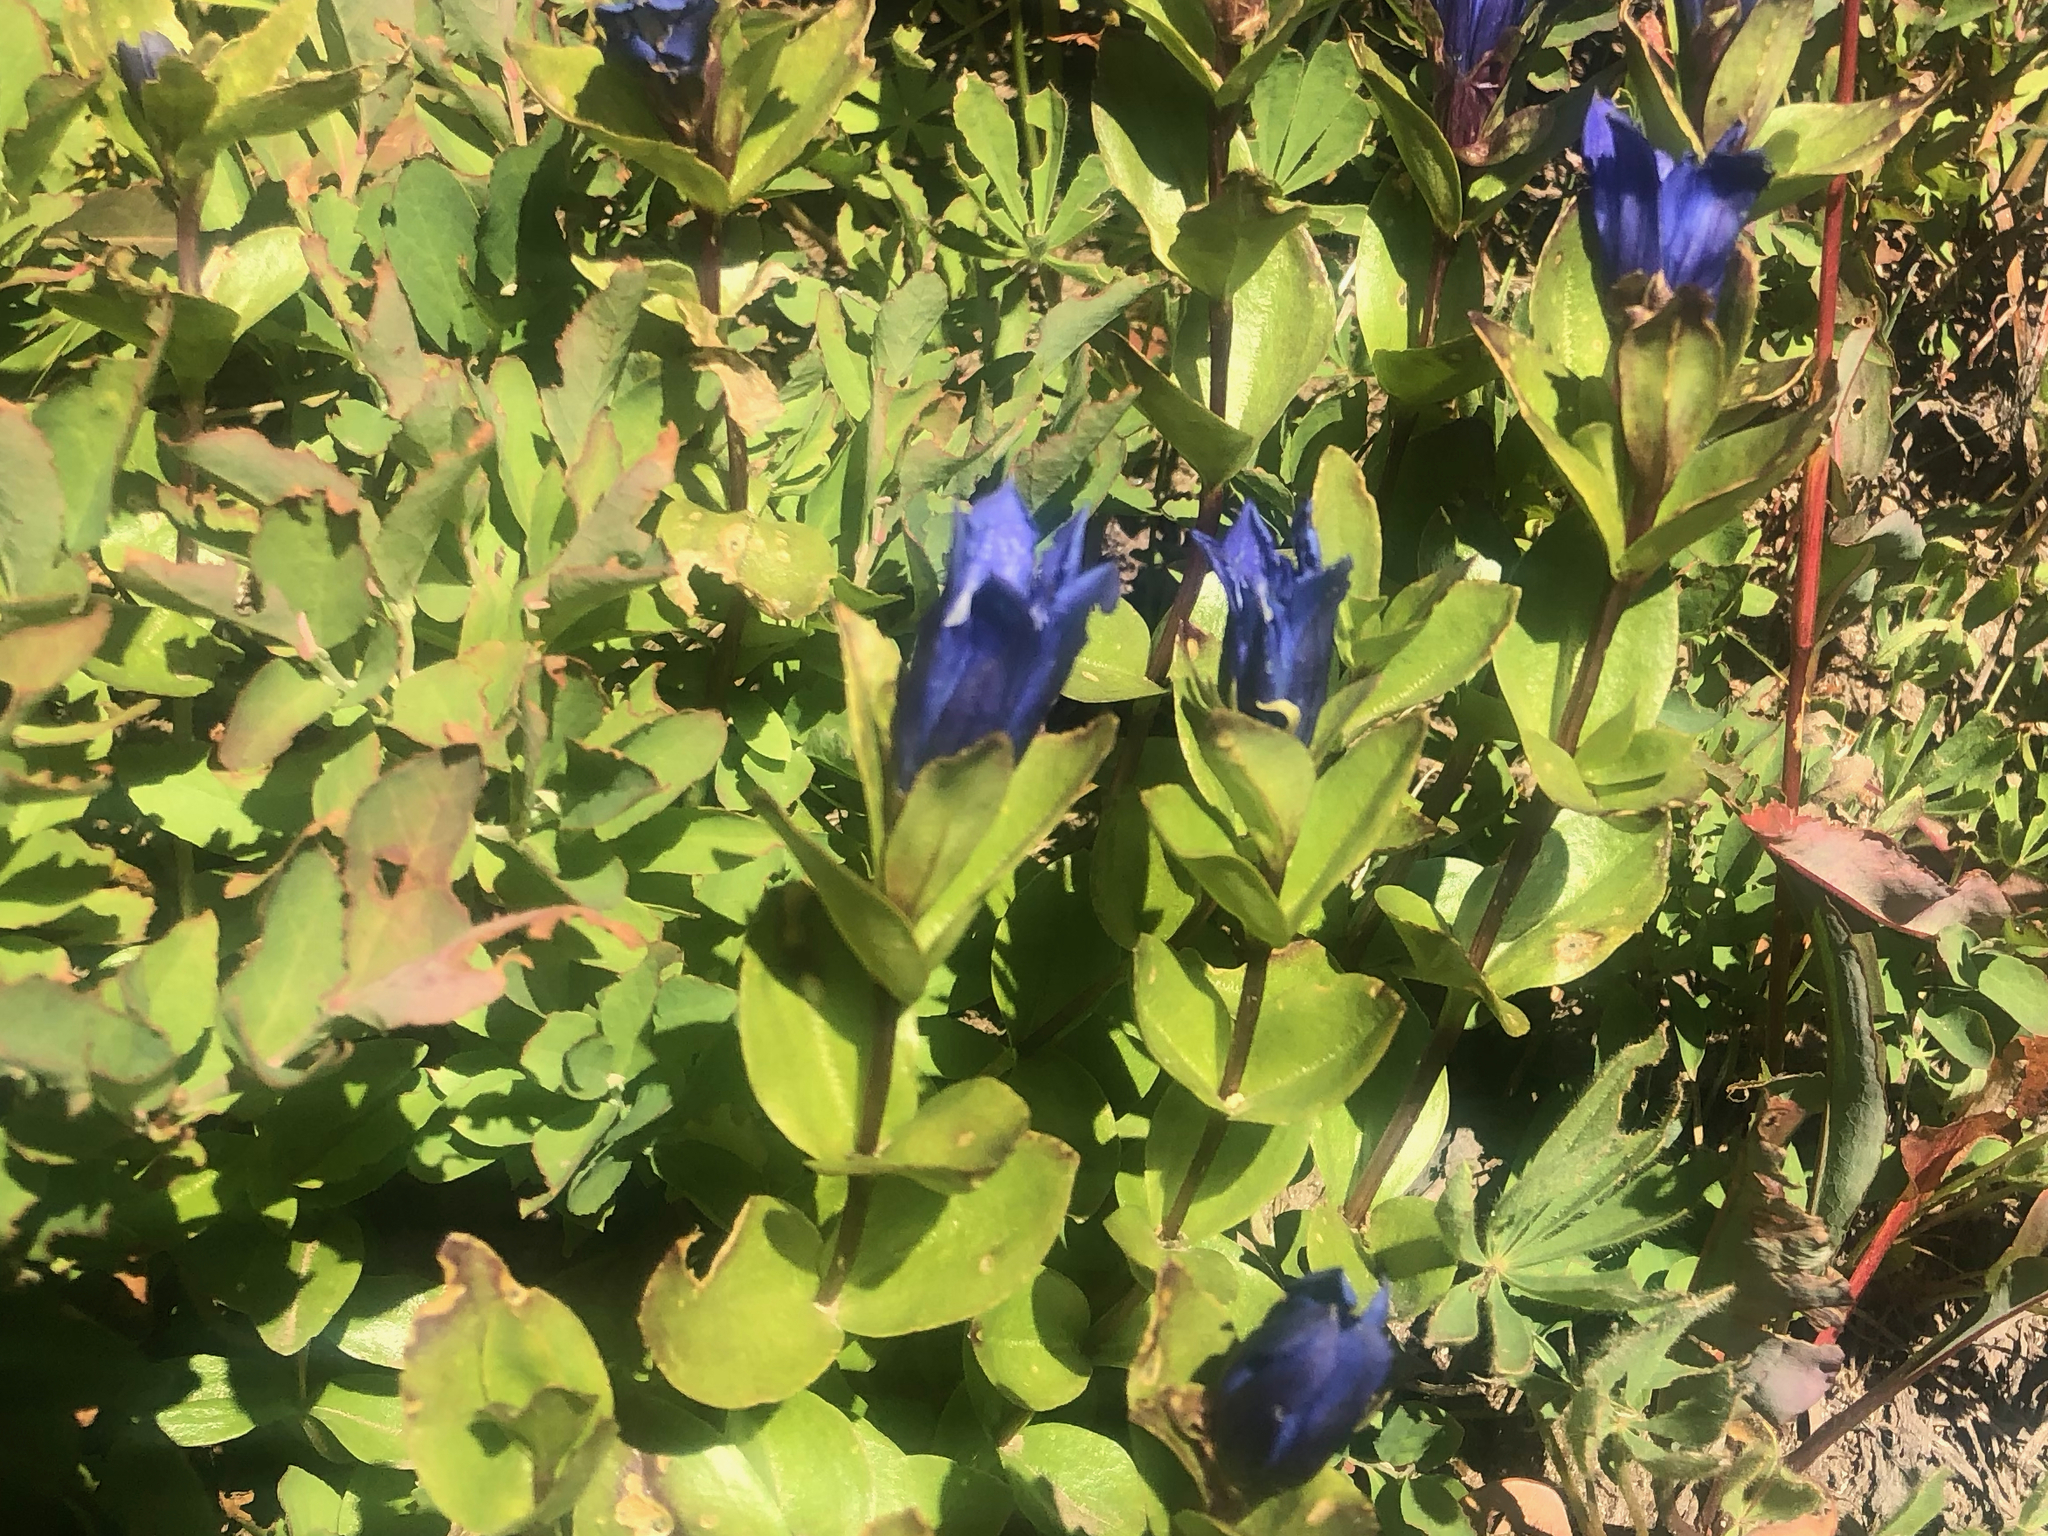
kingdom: Plantae
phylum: Tracheophyta
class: Magnoliopsida
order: Gentianales
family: Gentianaceae
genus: Gentiana
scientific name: Gentiana calycosa
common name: Rainier pleated gentian
